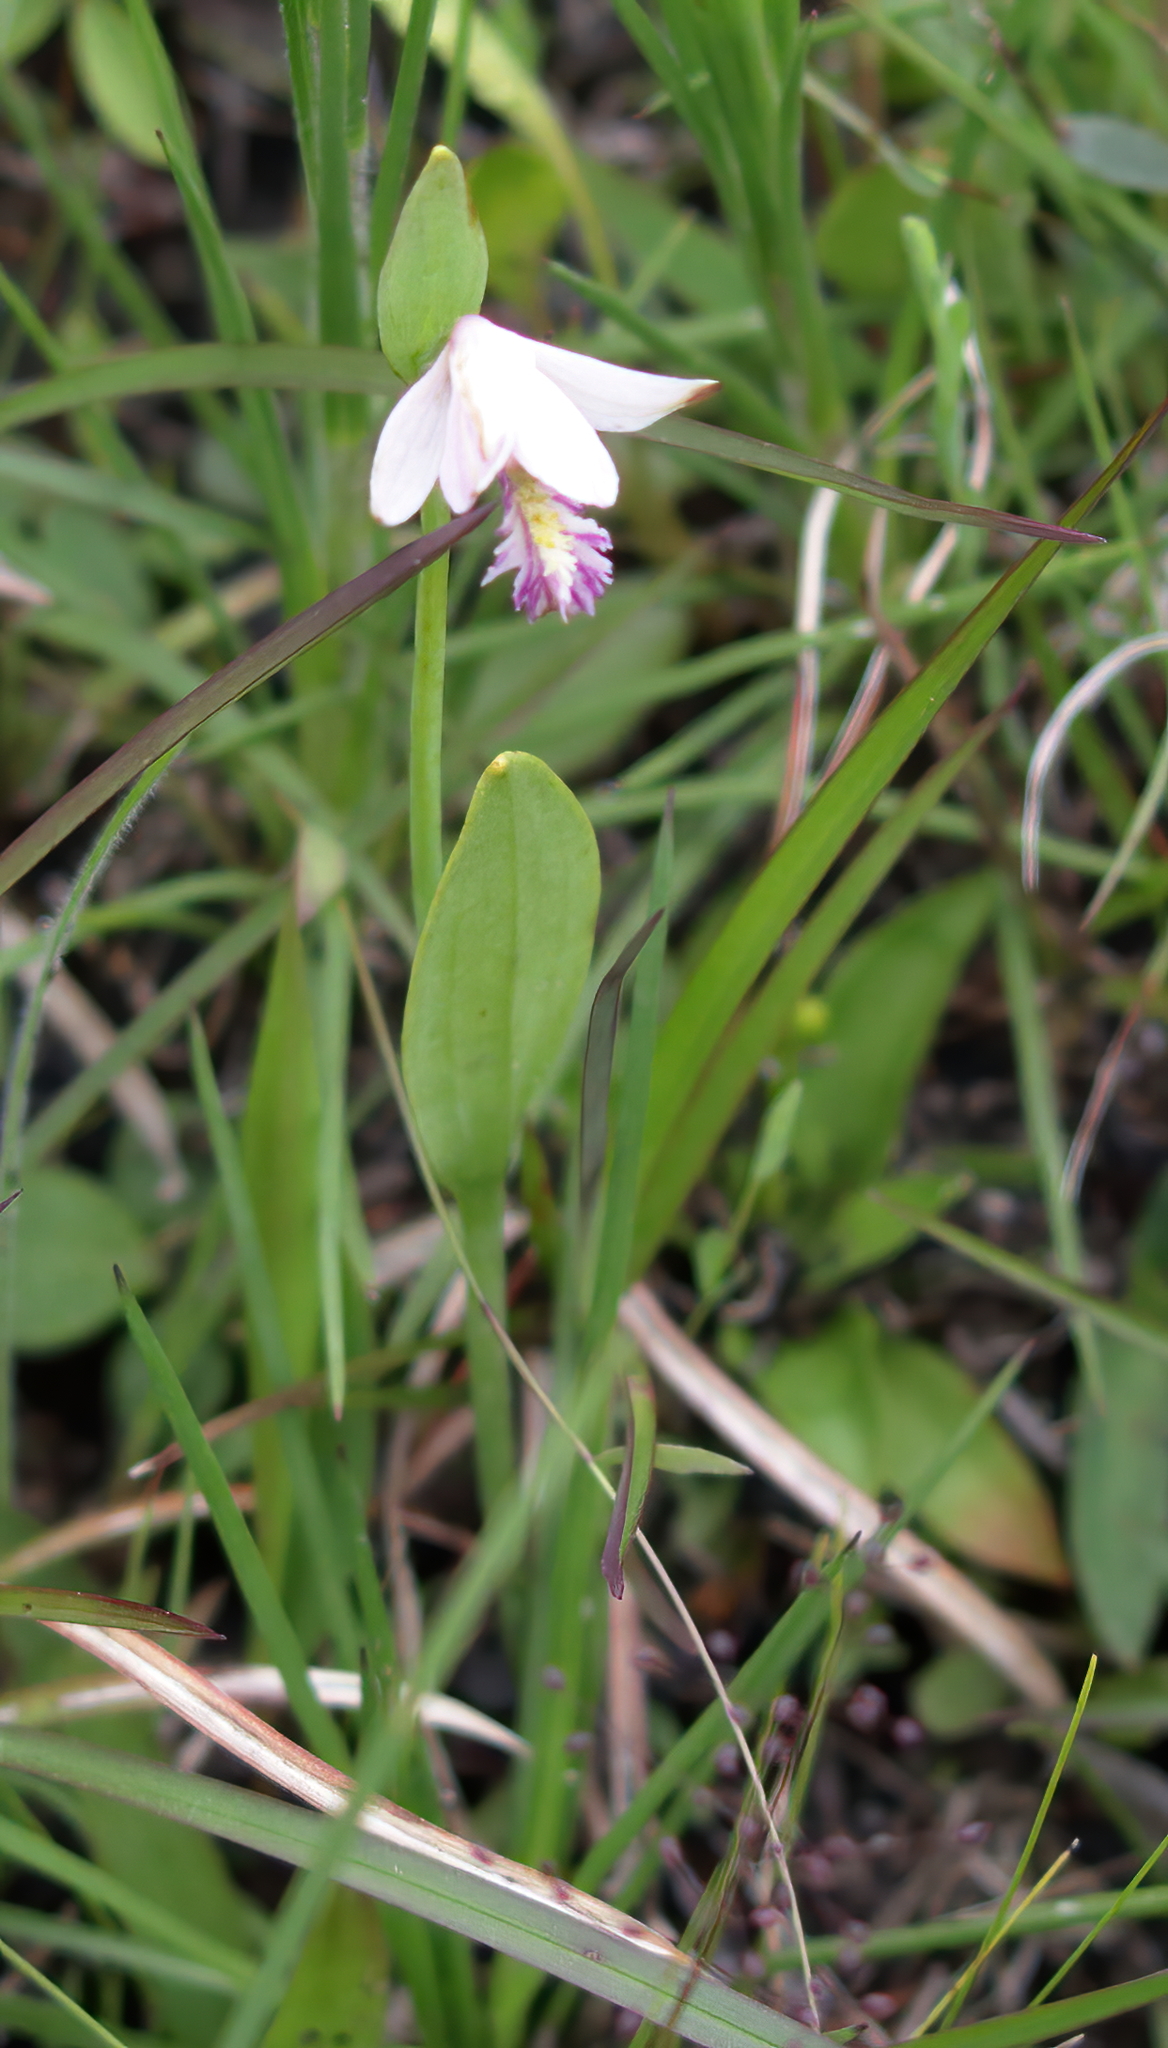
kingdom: Plantae
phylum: Tracheophyta
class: Liliopsida
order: Asparagales
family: Orchidaceae
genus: Pogonia
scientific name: Pogonia ophioglossoides
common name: Rose pogonia
